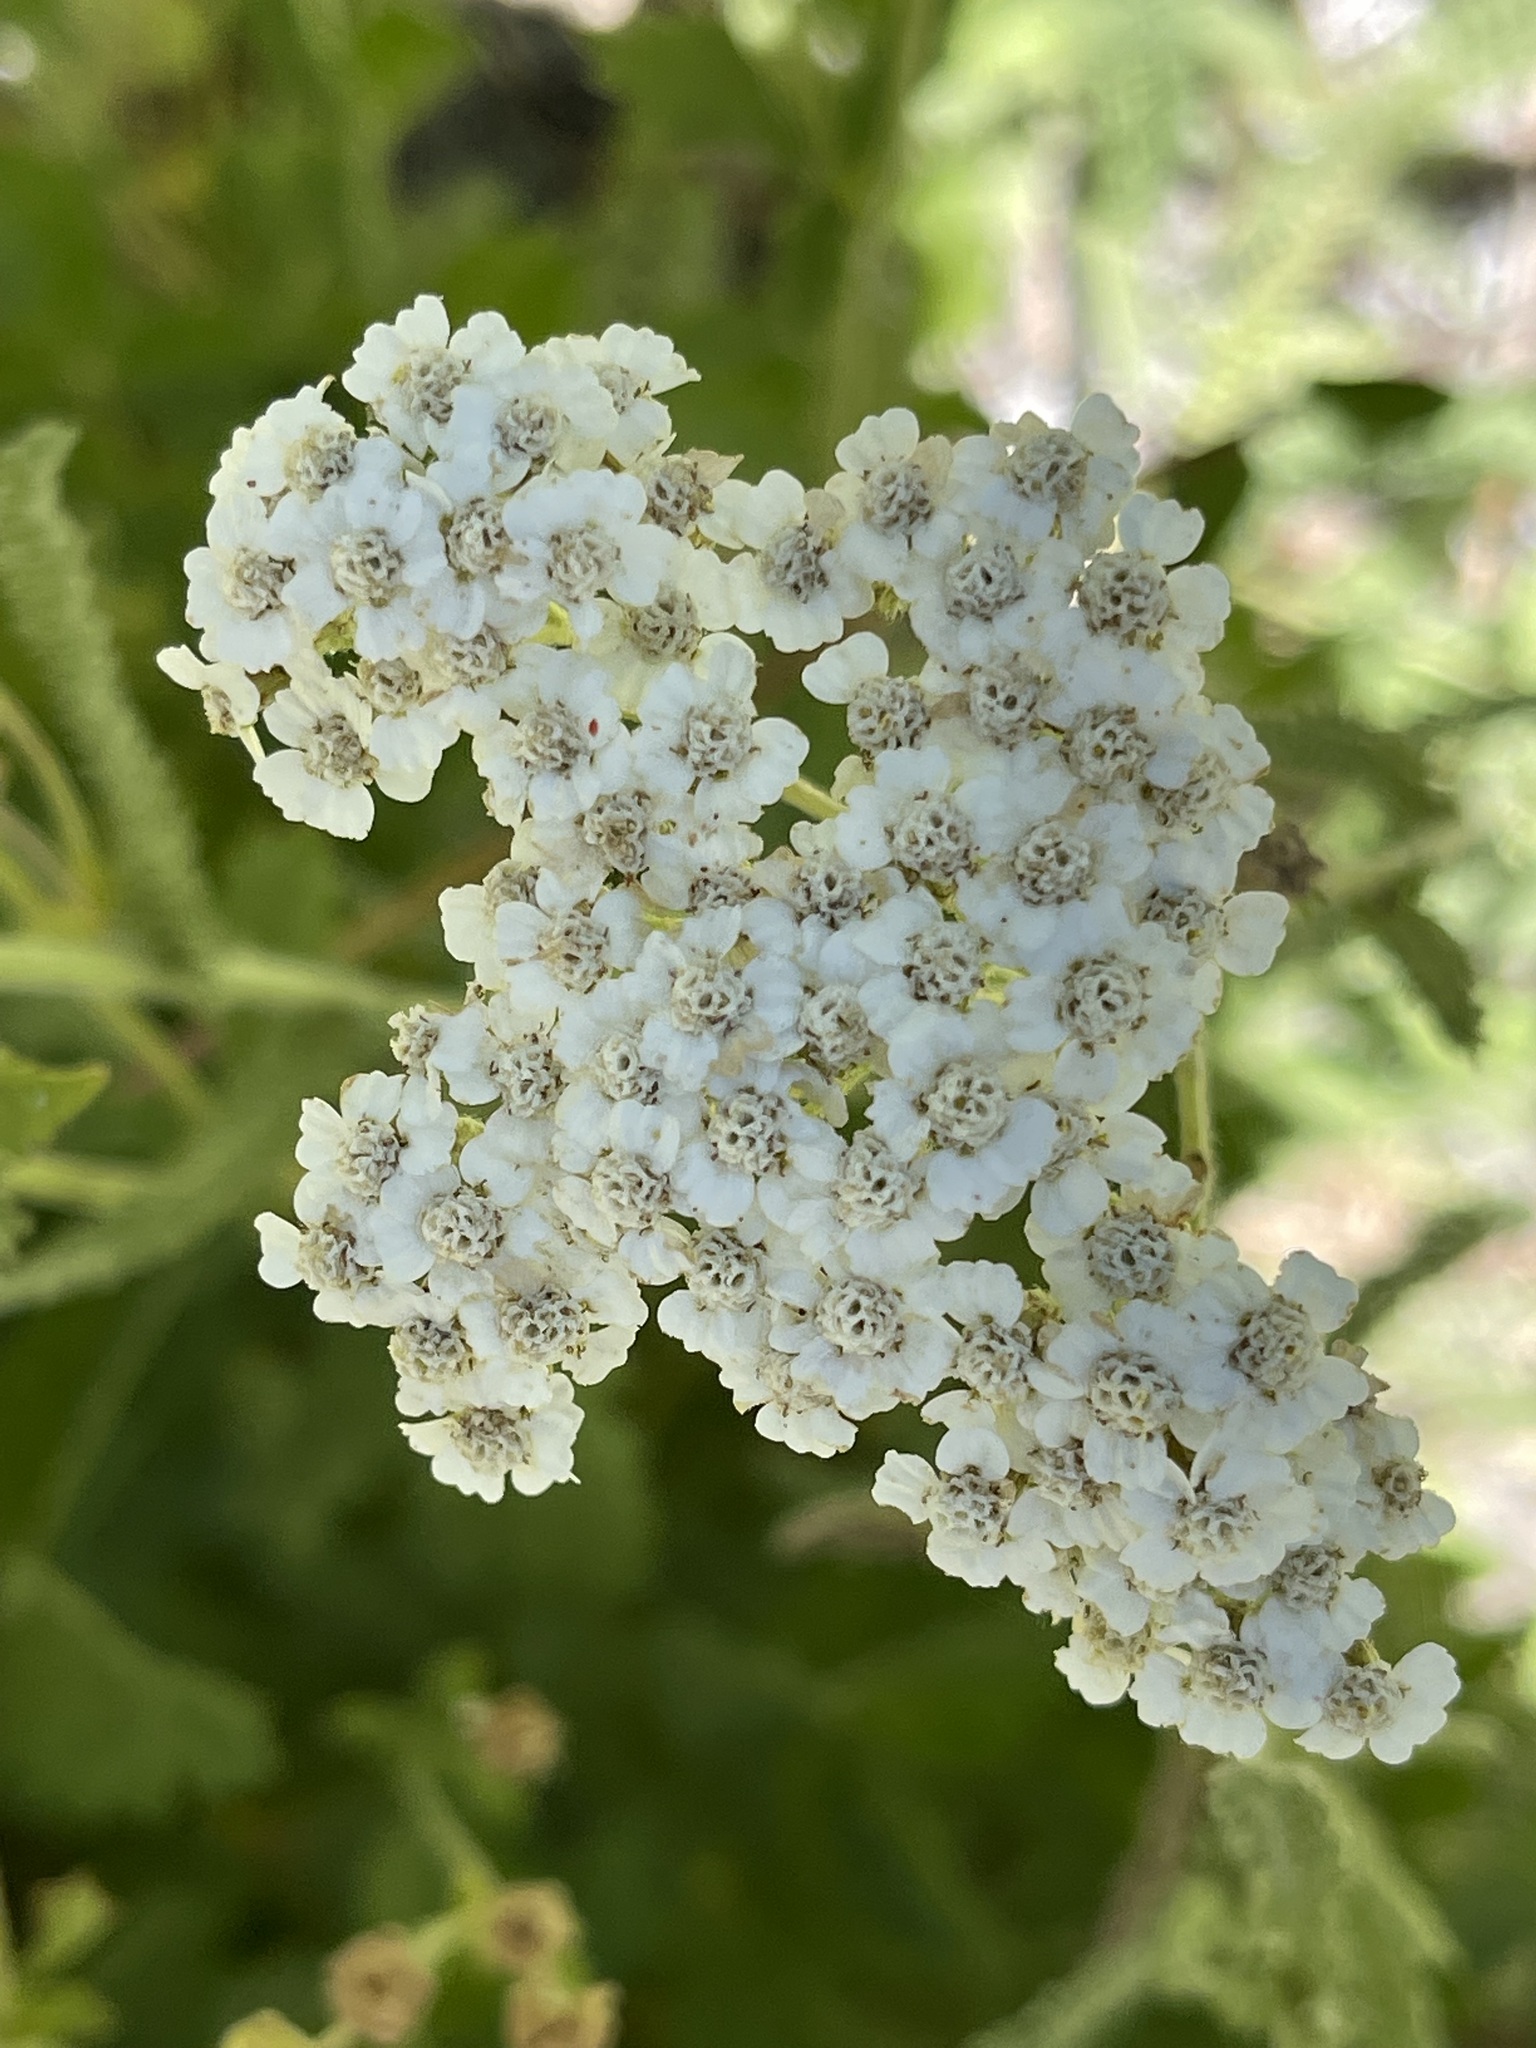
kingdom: Plantae
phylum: Tracheophyta
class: Magnoliopsida
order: Asterales
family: Asteraceae
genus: Achillea
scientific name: Achillea millefolium
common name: Yarrow
